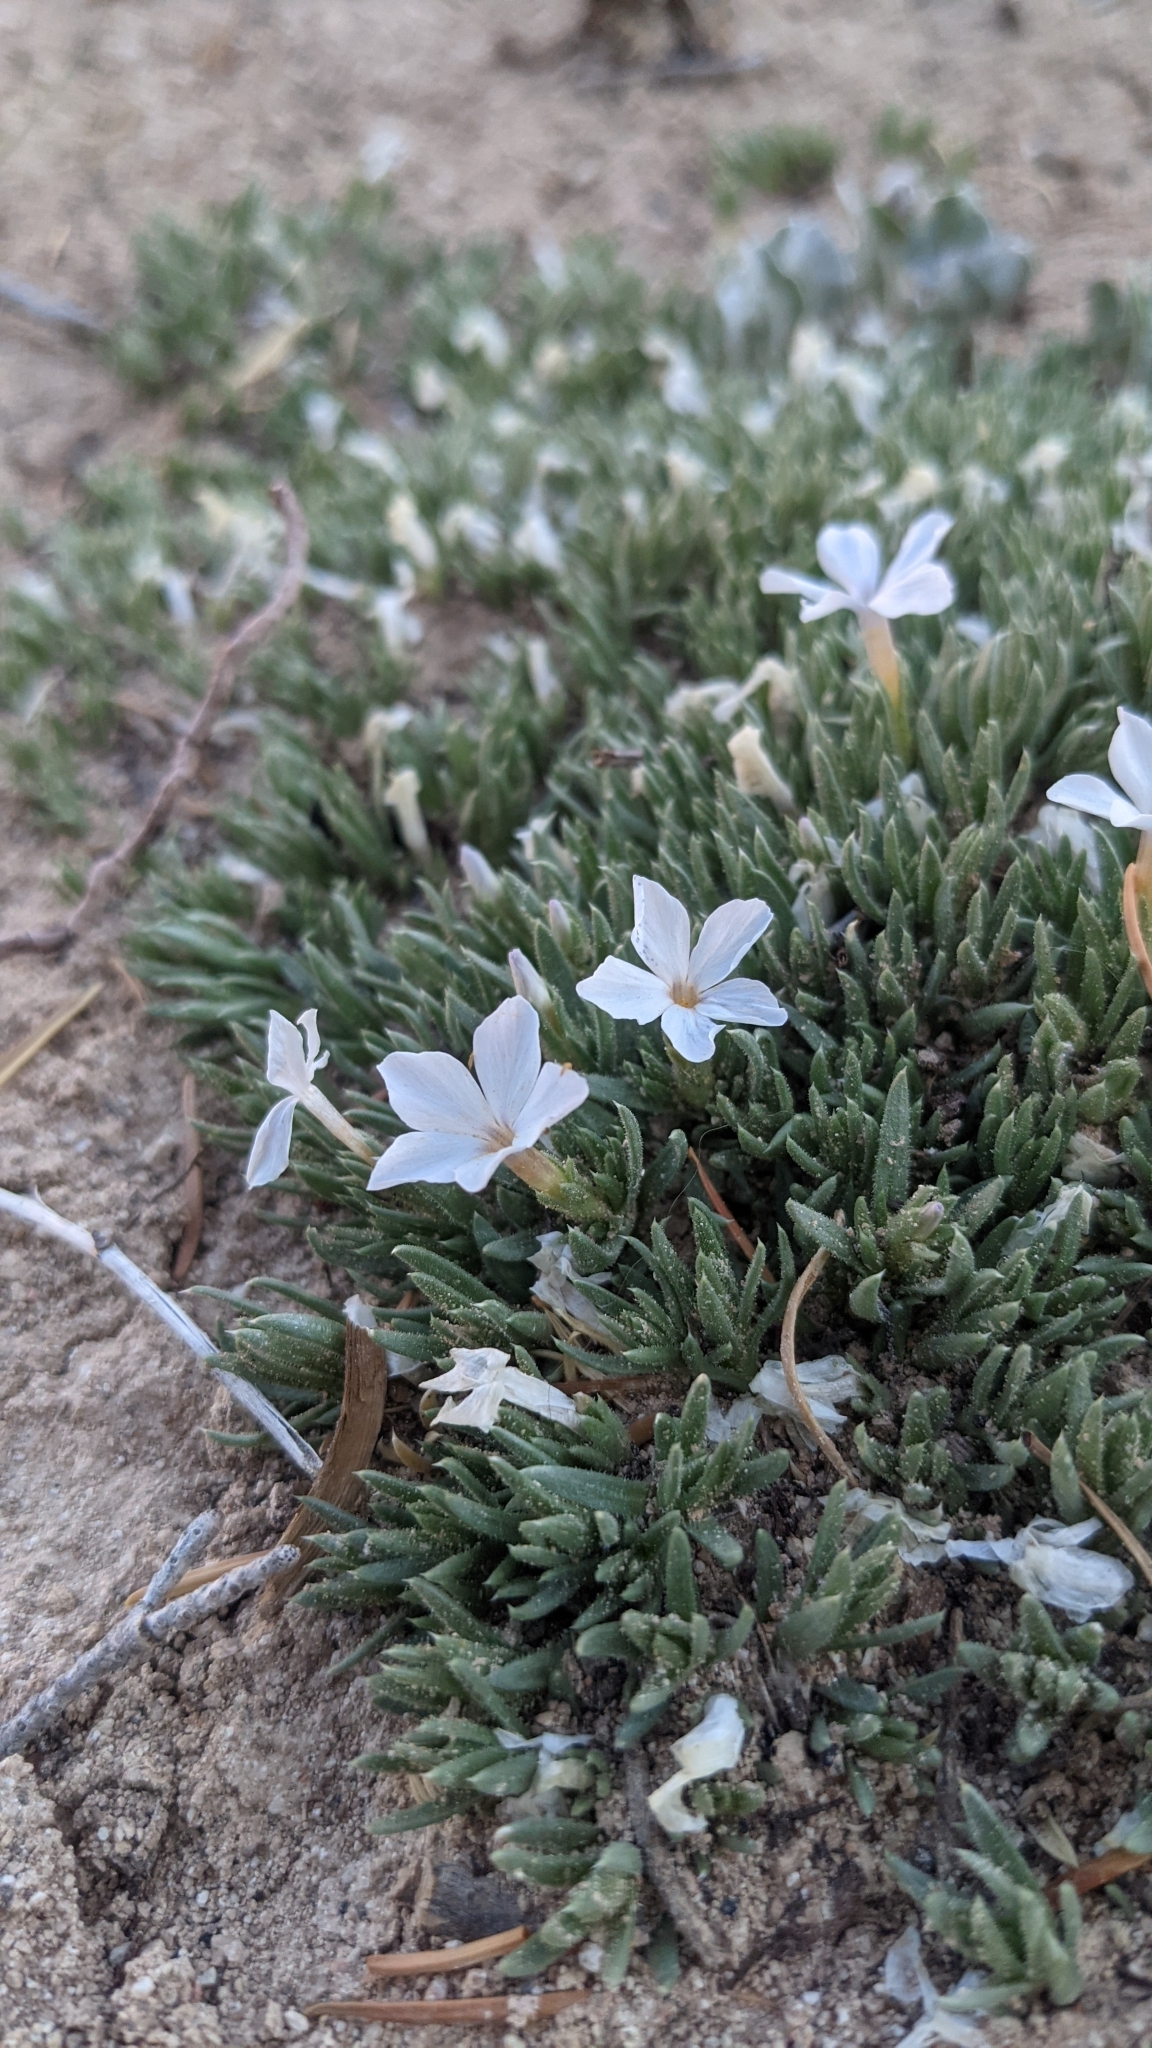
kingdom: Plantae
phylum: Tracheophyta
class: Magnoliopsida
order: Ericales
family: Polemoniaceae
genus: Phlox
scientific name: Phlox griseola
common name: Gray-leaf phlox
